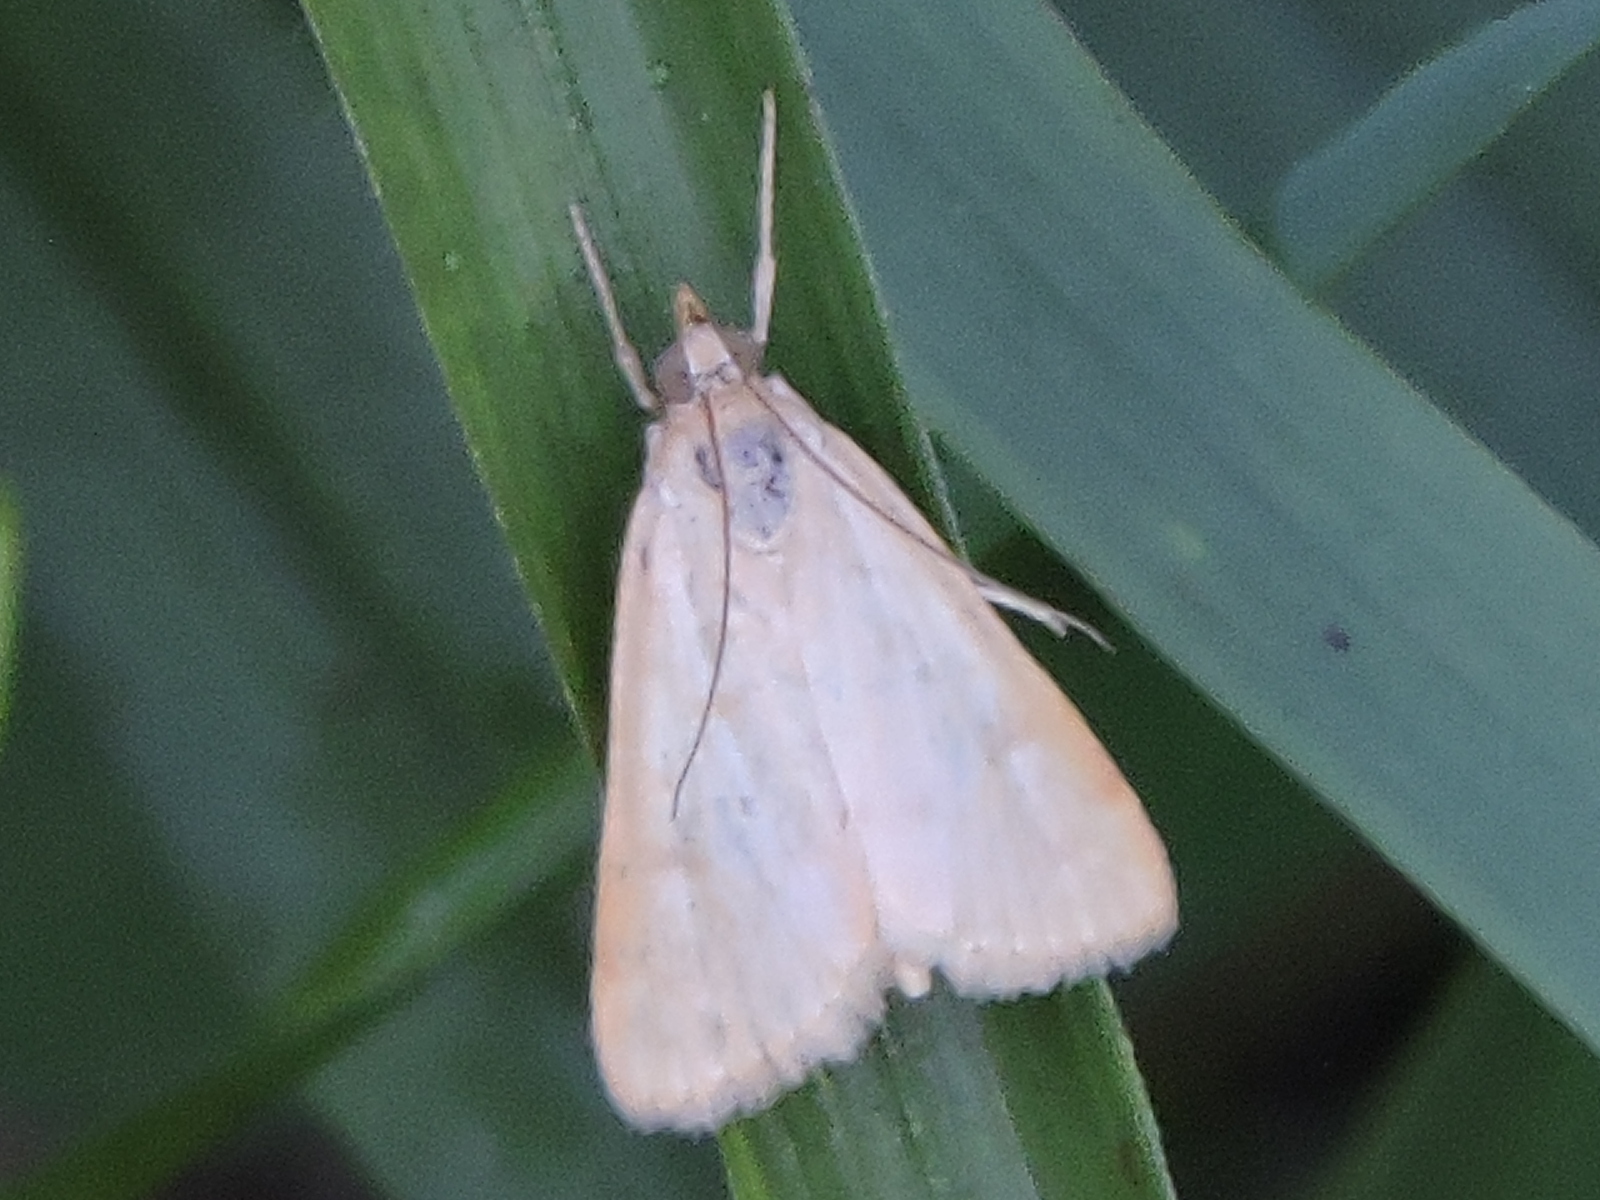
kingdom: Animalia
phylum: Arthropoda
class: Insecta
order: Lepidoptera
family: Crambidae
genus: Udea
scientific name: Udea rubigalis
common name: Celery leaftier moth
